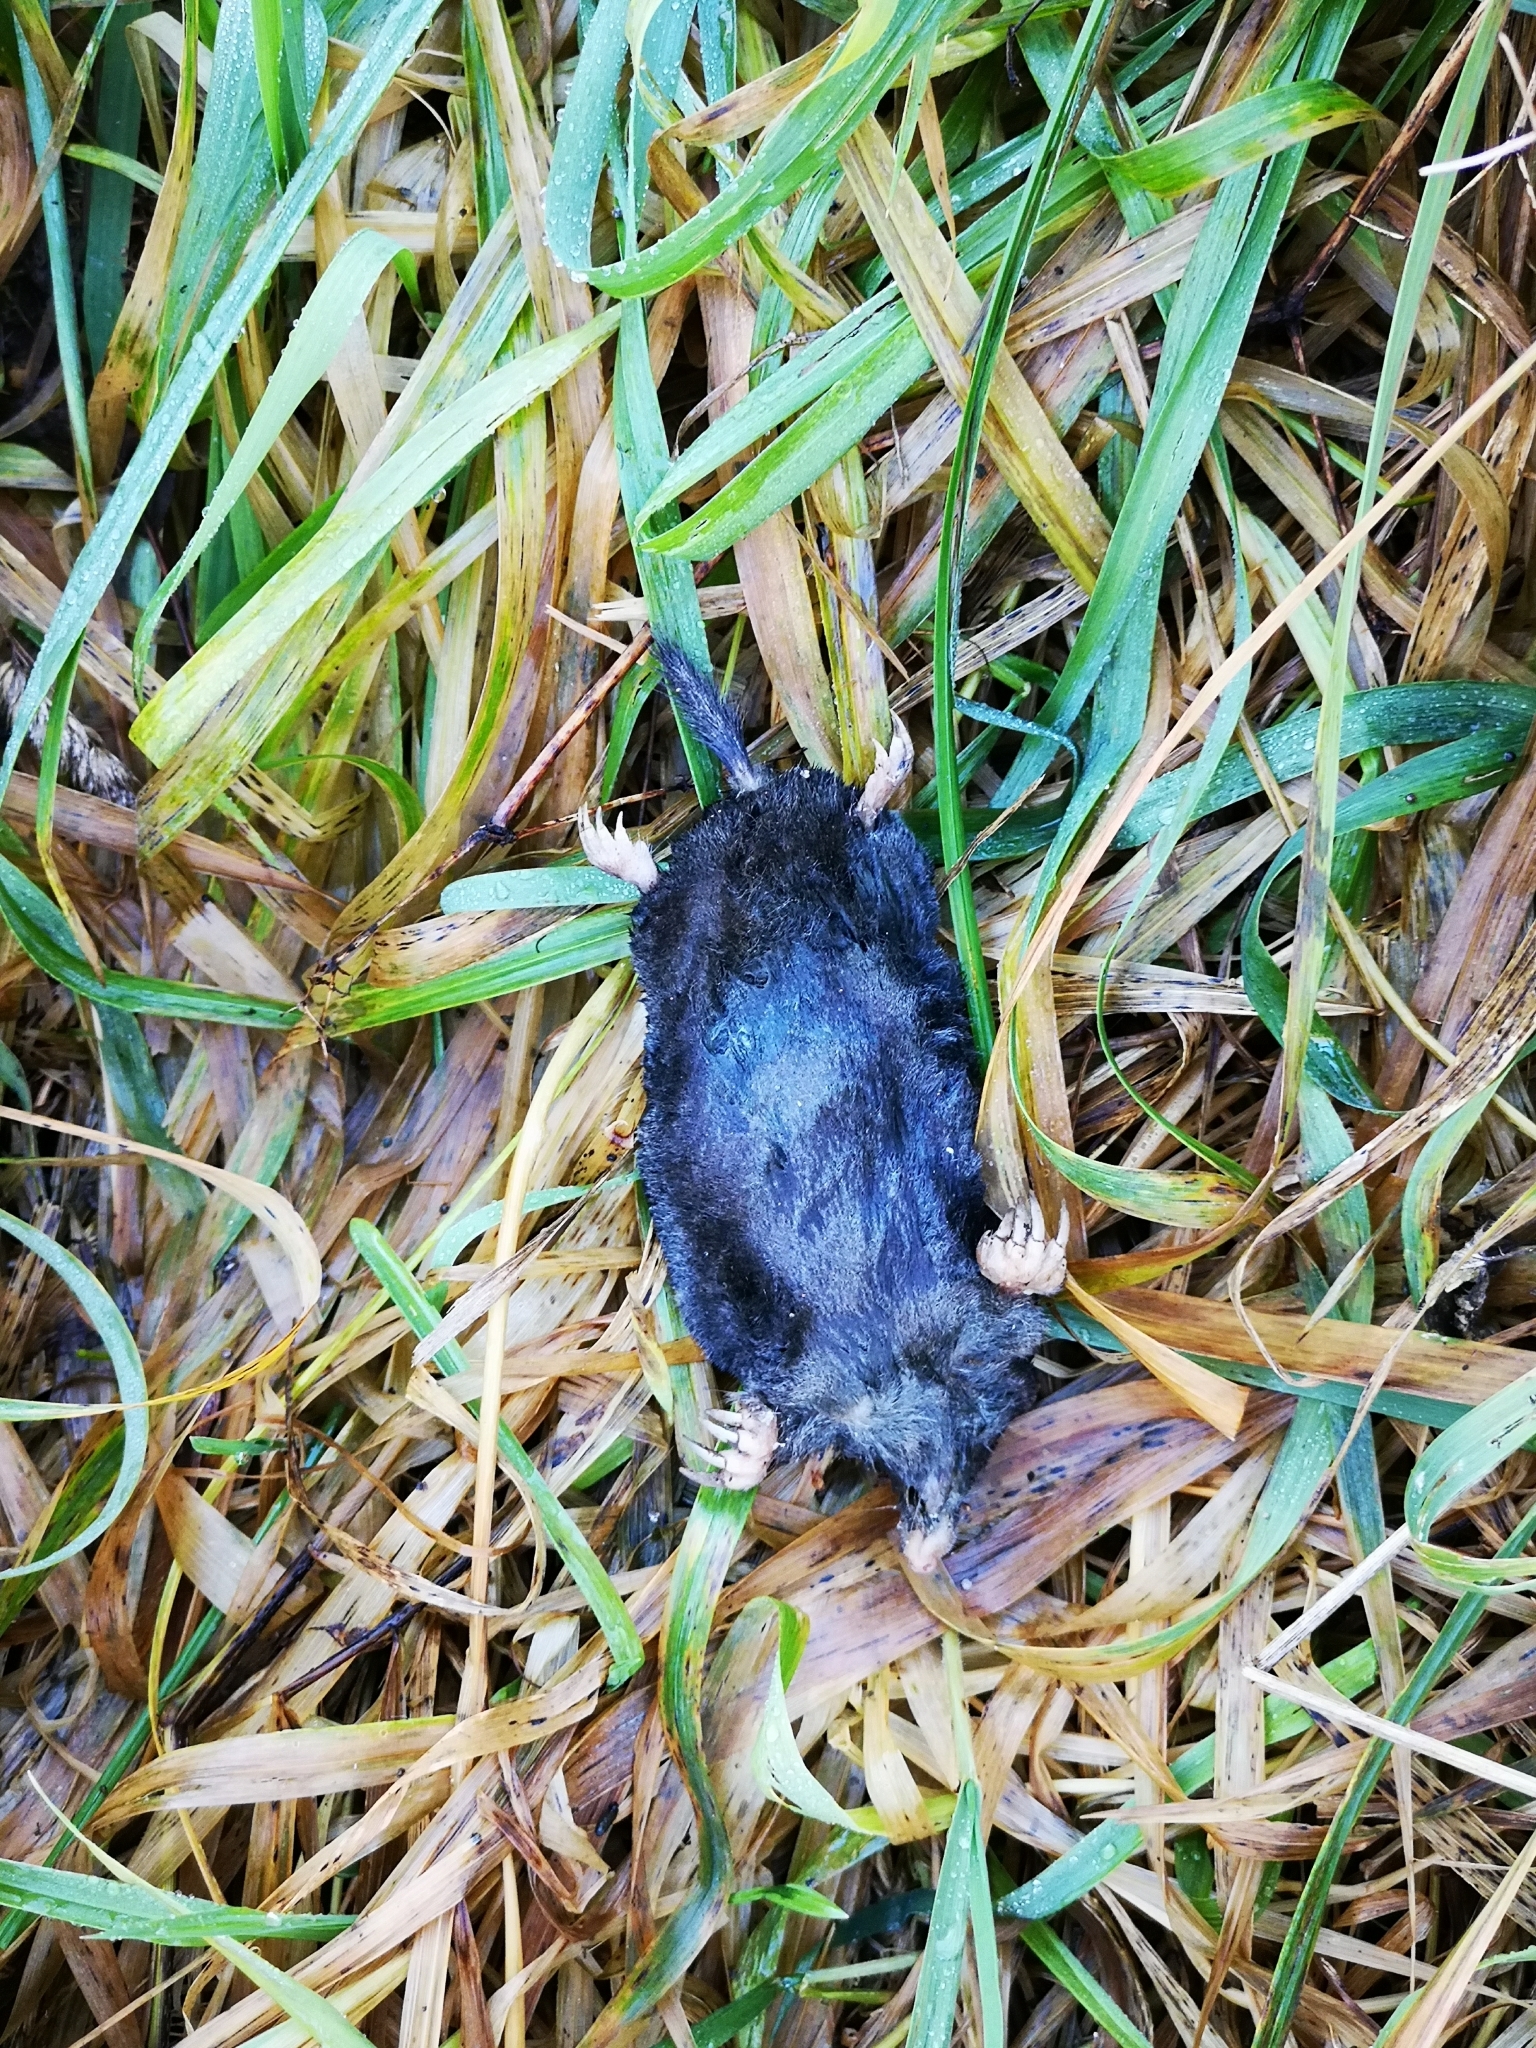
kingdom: Animalia
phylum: Chordata
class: Mammalia
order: Soricomorpha
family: Talpidae
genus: Talpa
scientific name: Talpa europaea
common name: European mole
